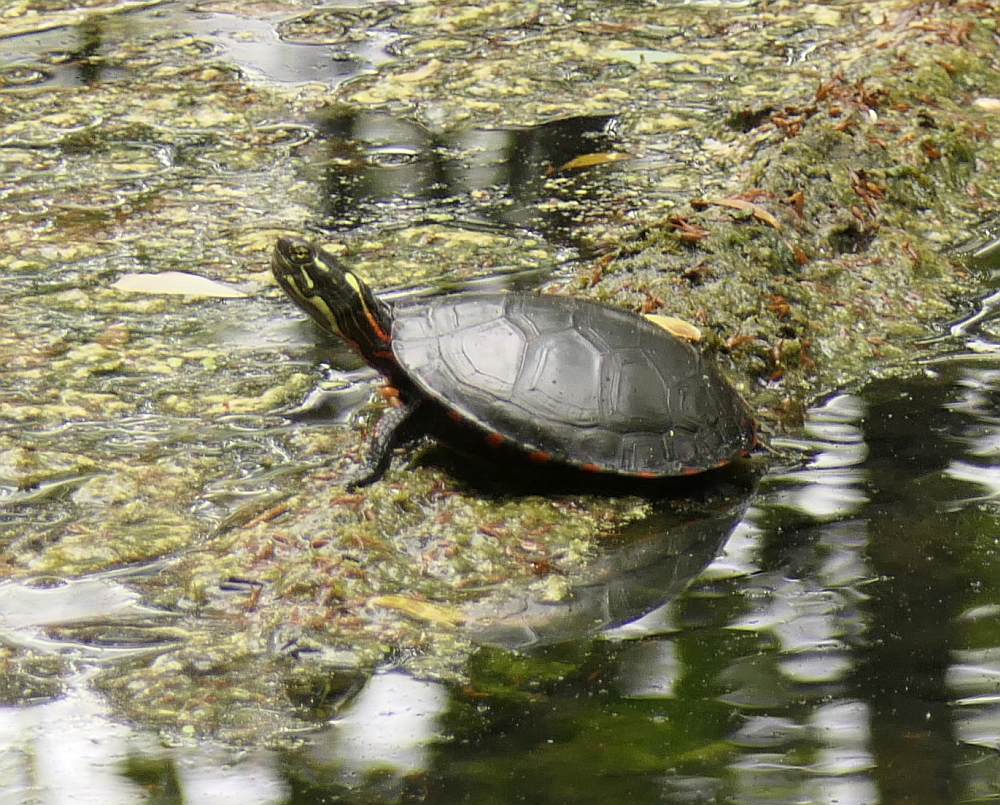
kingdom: Animalia
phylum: Chordata
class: Testudines
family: Emydidae
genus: Chrysemys
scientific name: Chrysemys picta
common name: Painted turtle
